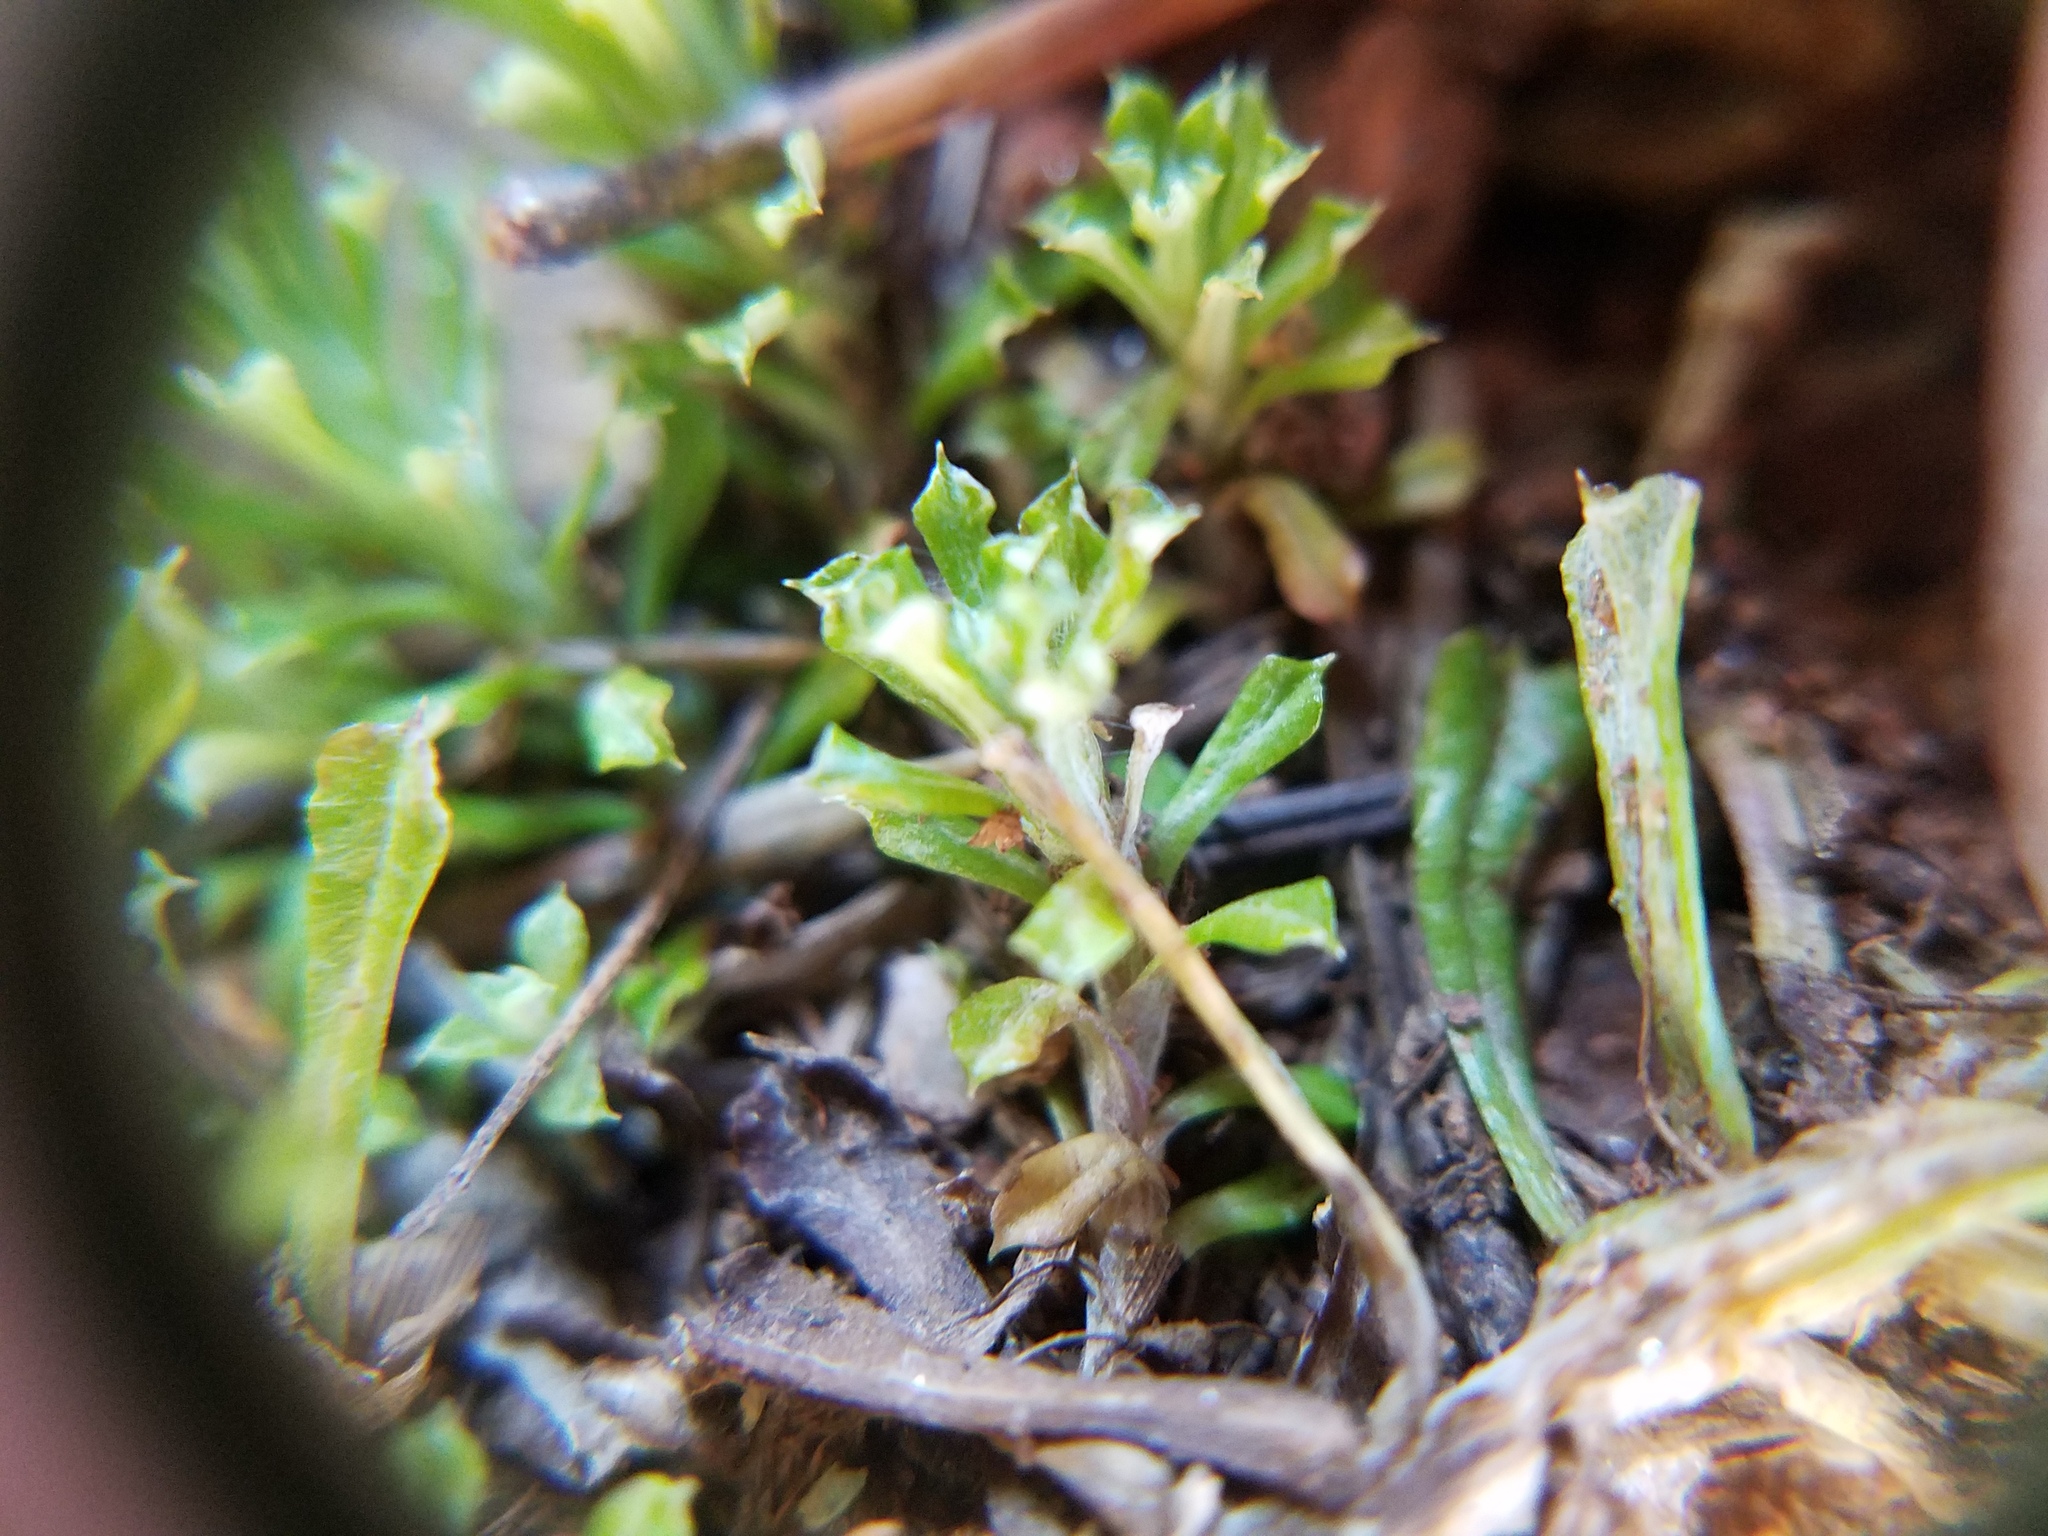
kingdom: Plantae
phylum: Tracheophyta
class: Magnoliopsida
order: Asterales
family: Asteraceae
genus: Facelis
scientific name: Facelis retusa
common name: Annual trampweed
